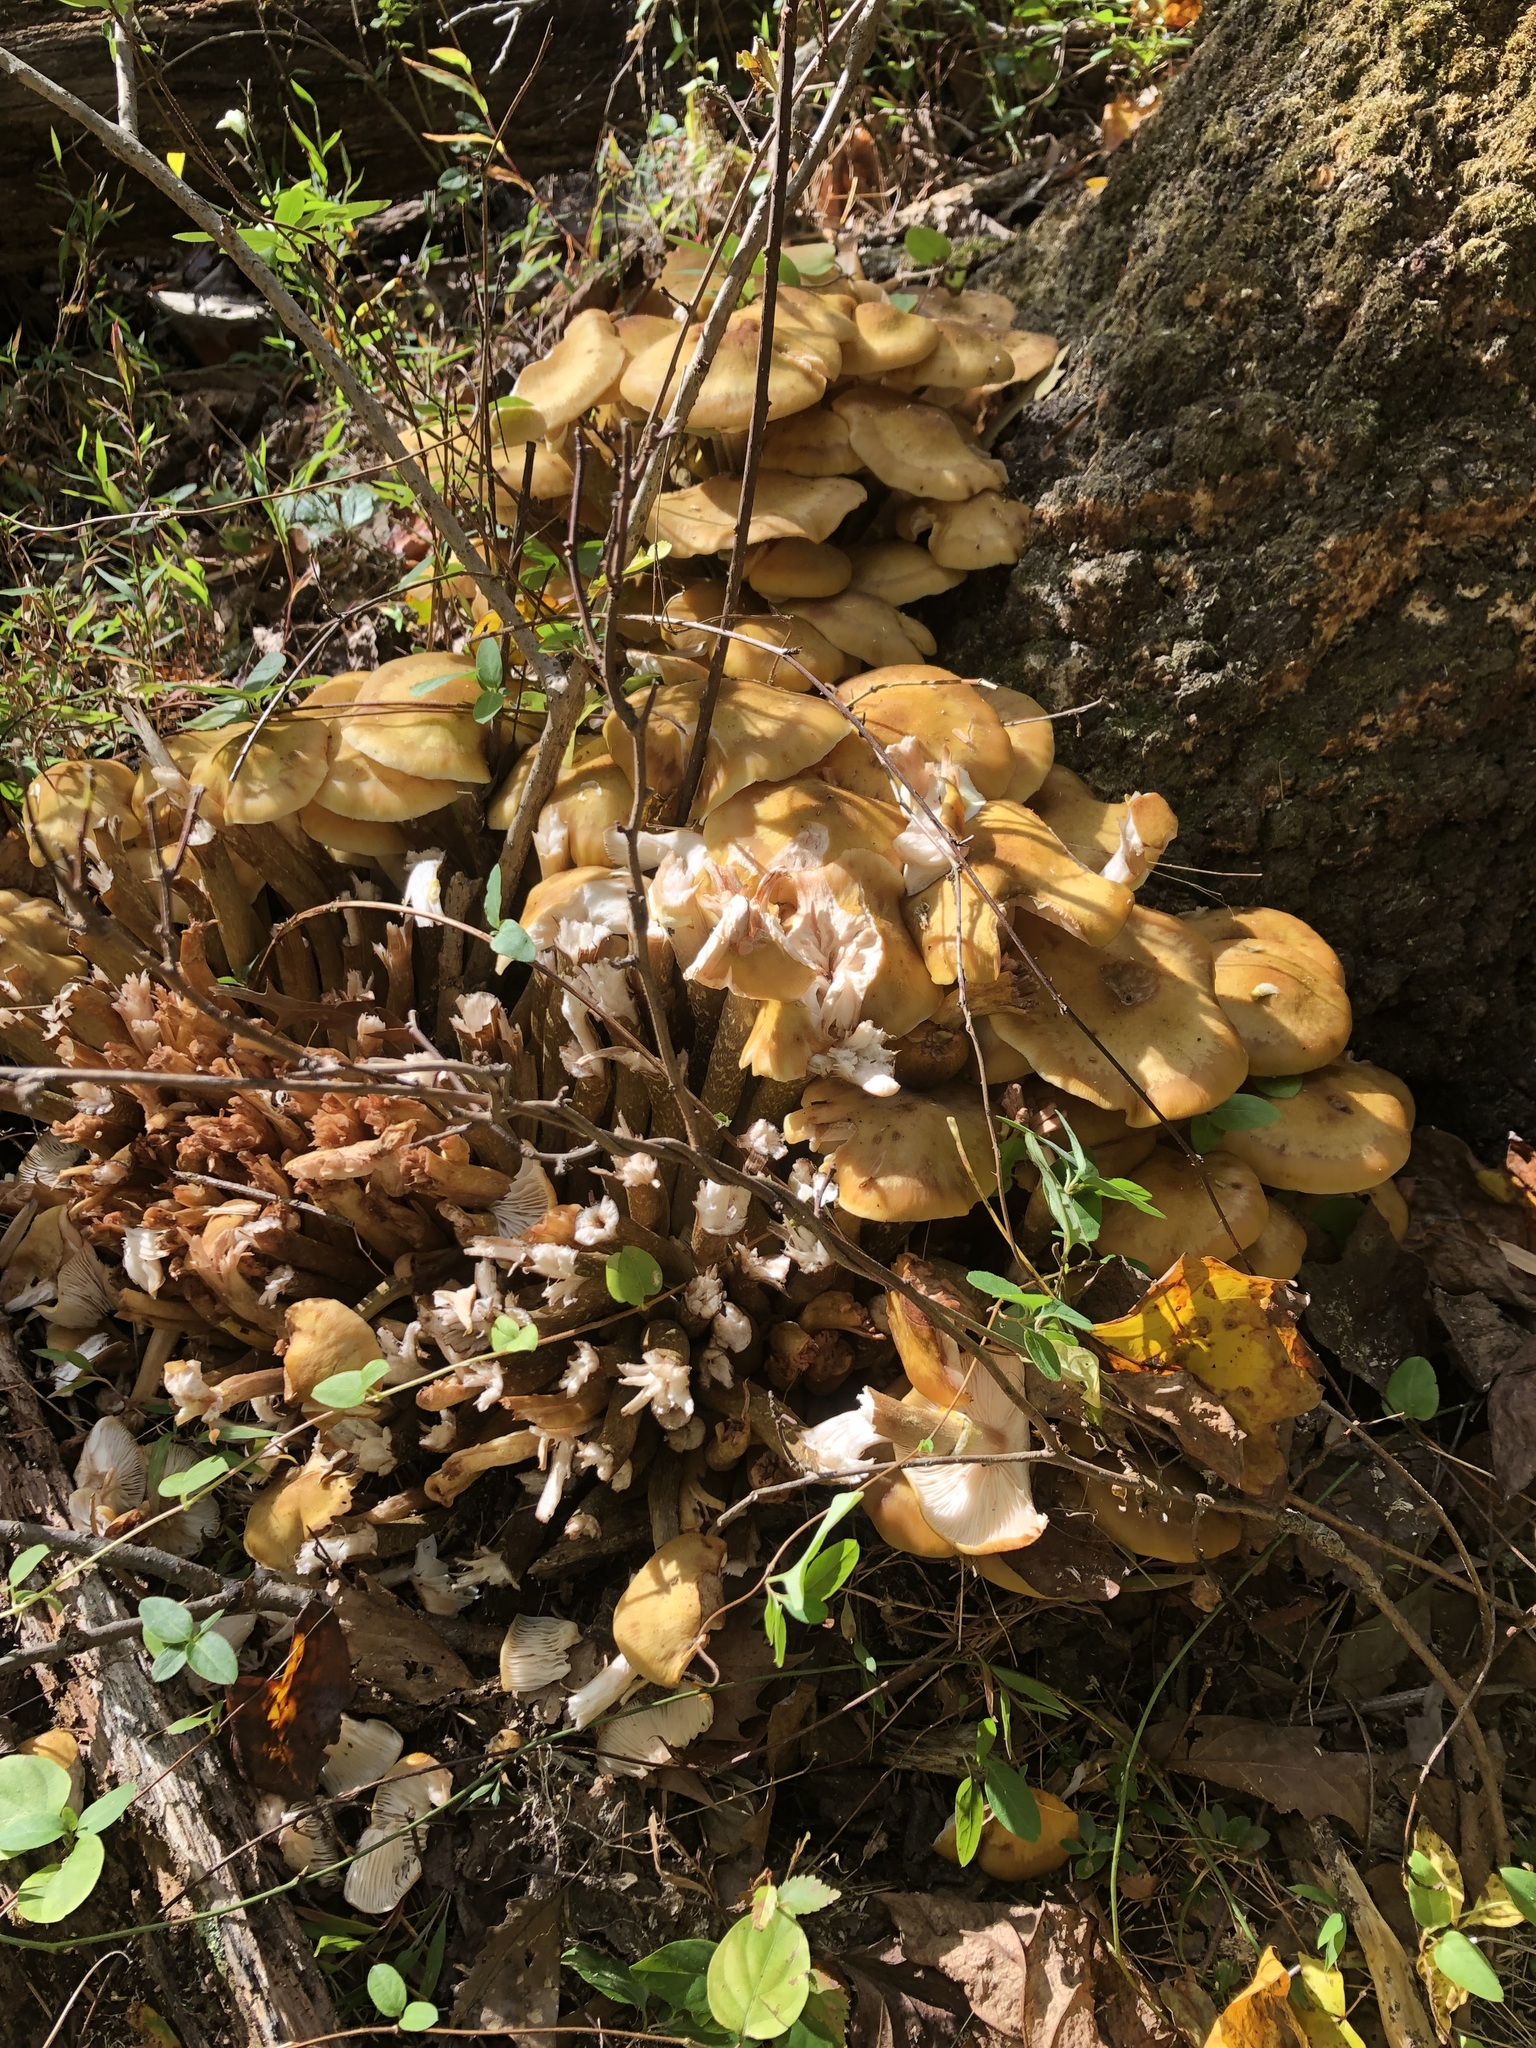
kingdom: Fungi
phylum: Basidiomycota
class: Agaricomycetes
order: Agaricales
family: Physalacriaceae
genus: Armillaria
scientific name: Armillaria mellea
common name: Honey fungus
